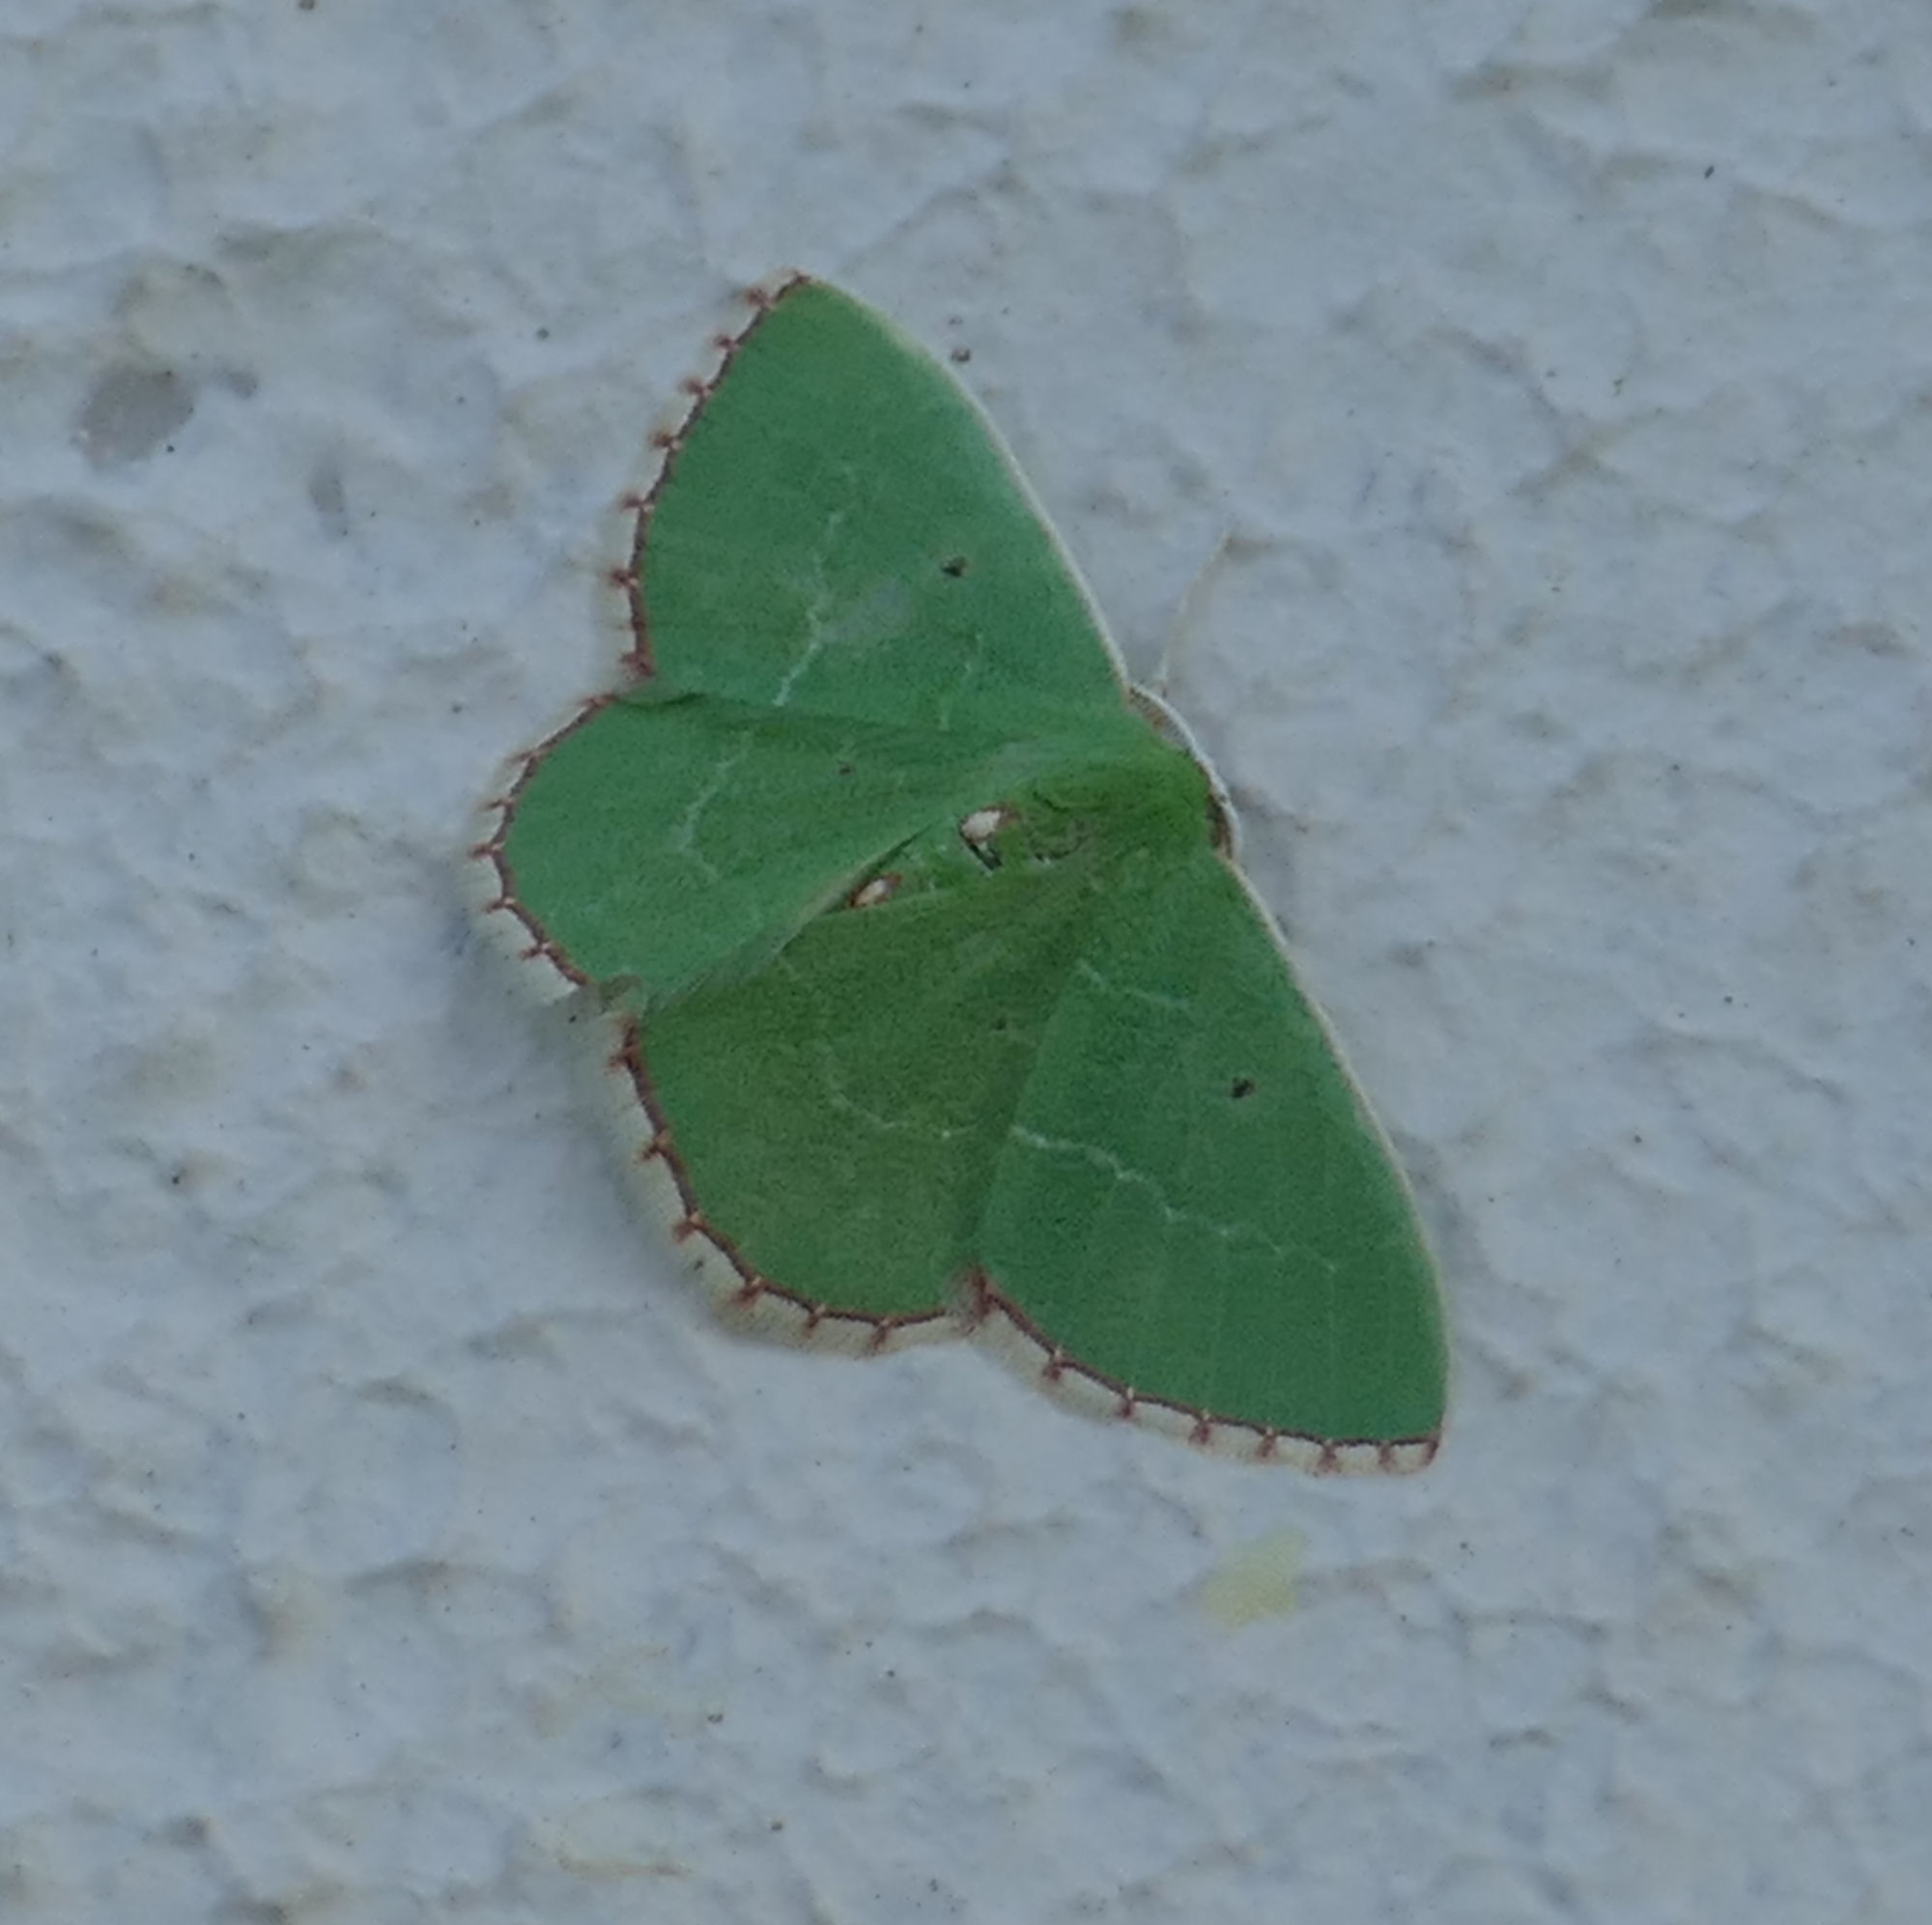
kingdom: Animalia
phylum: Arthropoda
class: Insecta
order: Lepidoptera
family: Geometridae
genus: Nemoria
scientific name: Nemoria lixaria
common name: Red-bordered emerald
